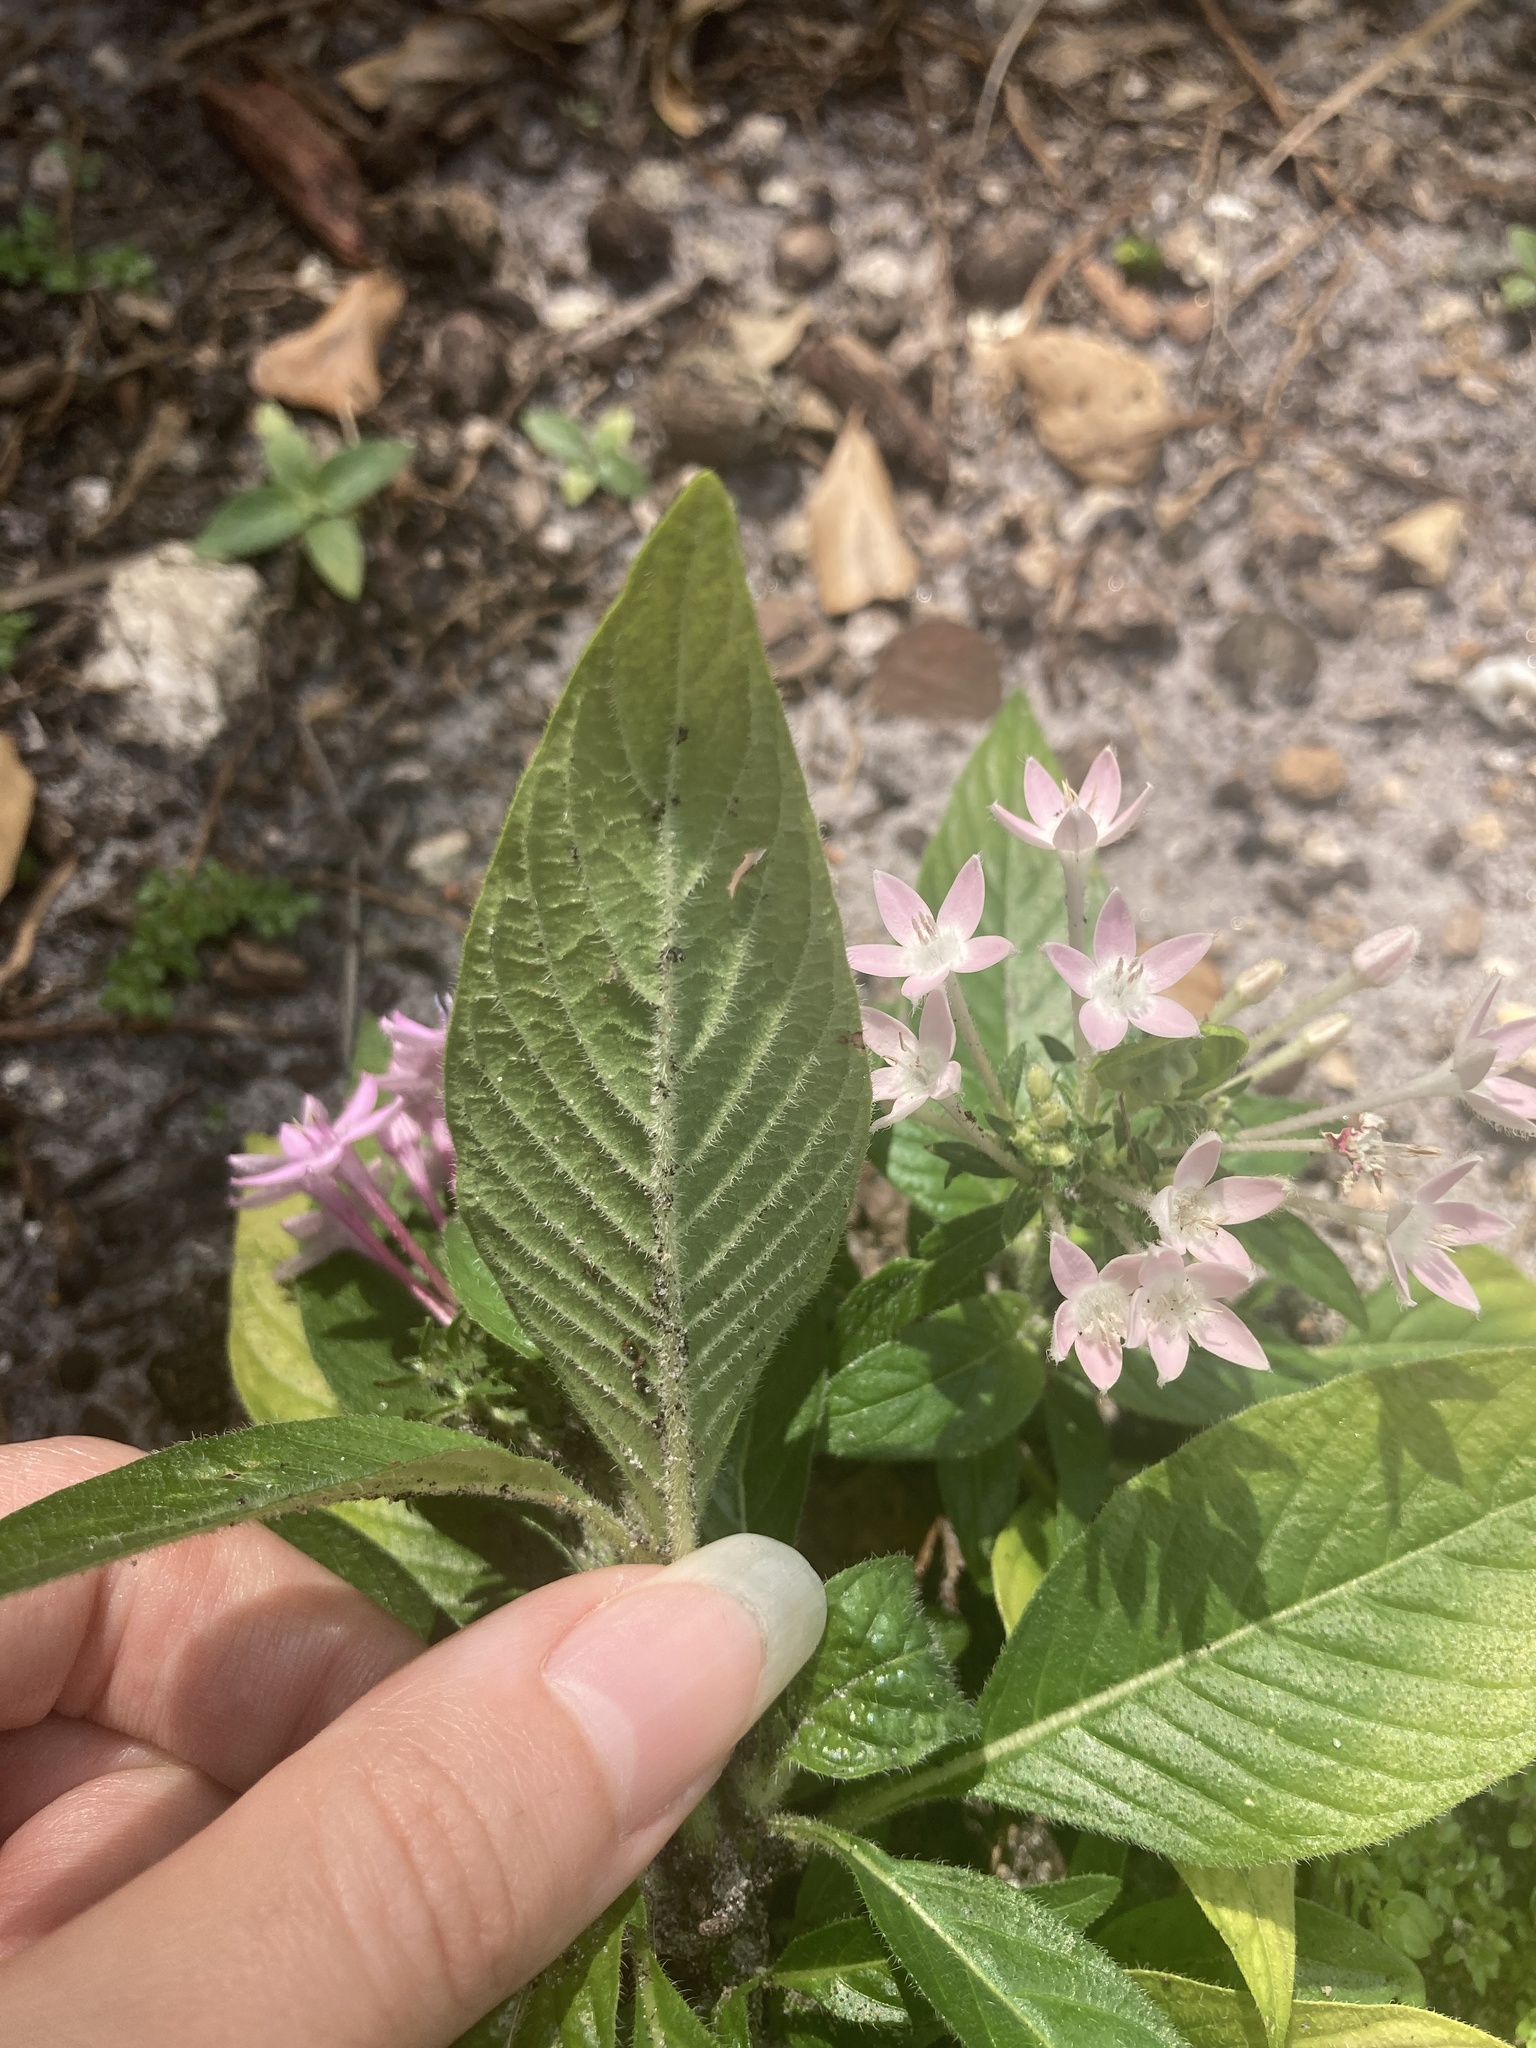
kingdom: Plantae
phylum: Tracheophyta
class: Magnoliopsida
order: Gentianales
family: Rubiaceae
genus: Pentas
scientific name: Pentas lanceolata
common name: Egyptian starcluster
